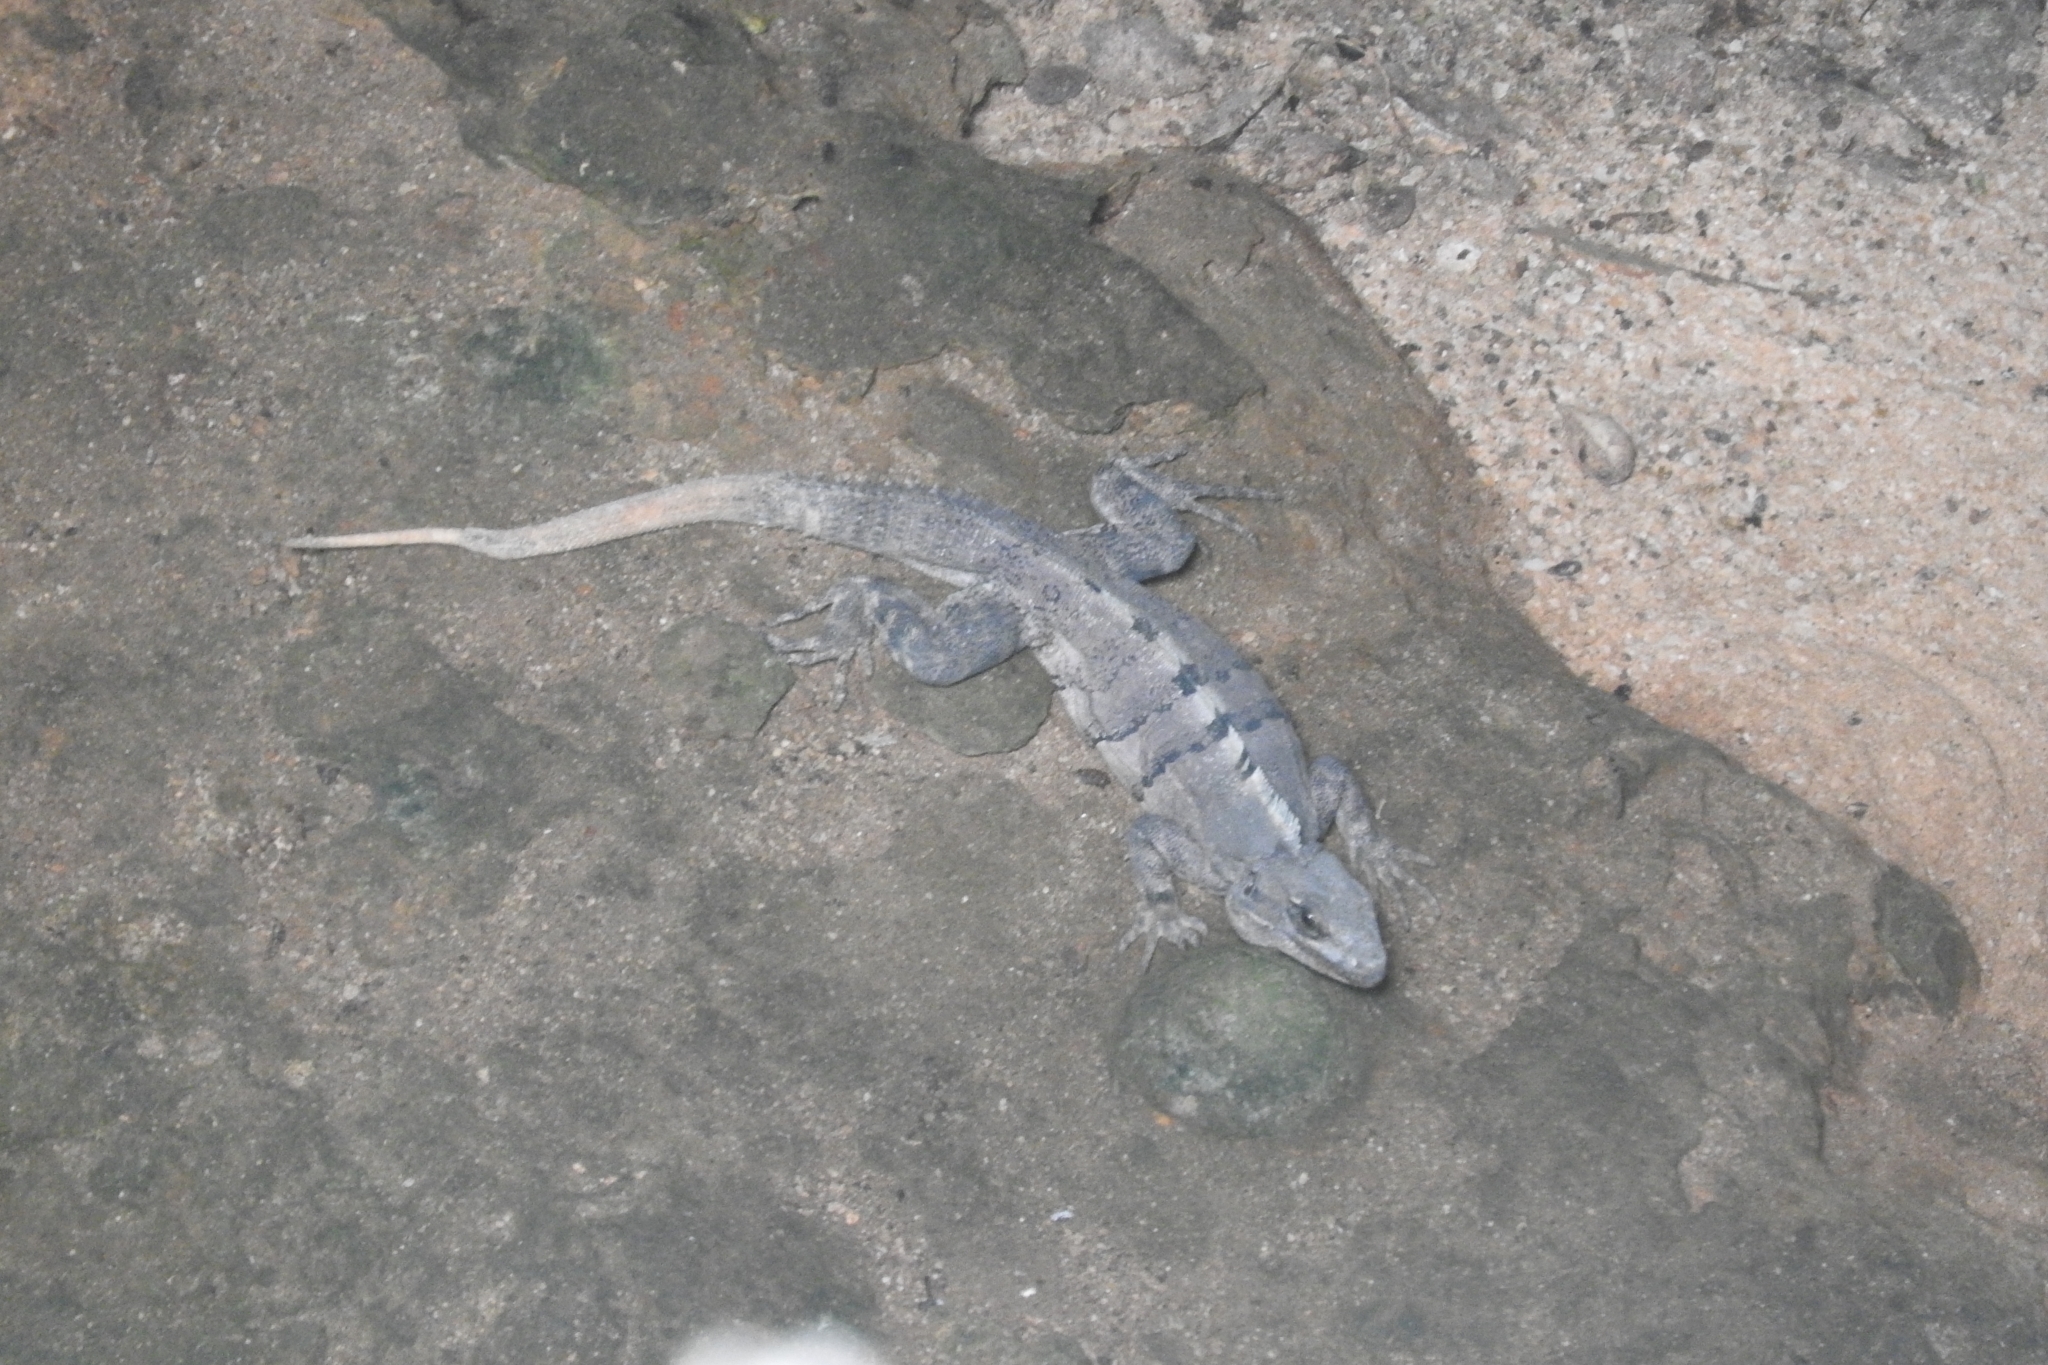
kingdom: Animalia
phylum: Chordata
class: Squamata
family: Iguanidae
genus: Ctenosaura
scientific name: Ctenosaura similis
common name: Black spiny-tailed iguana
